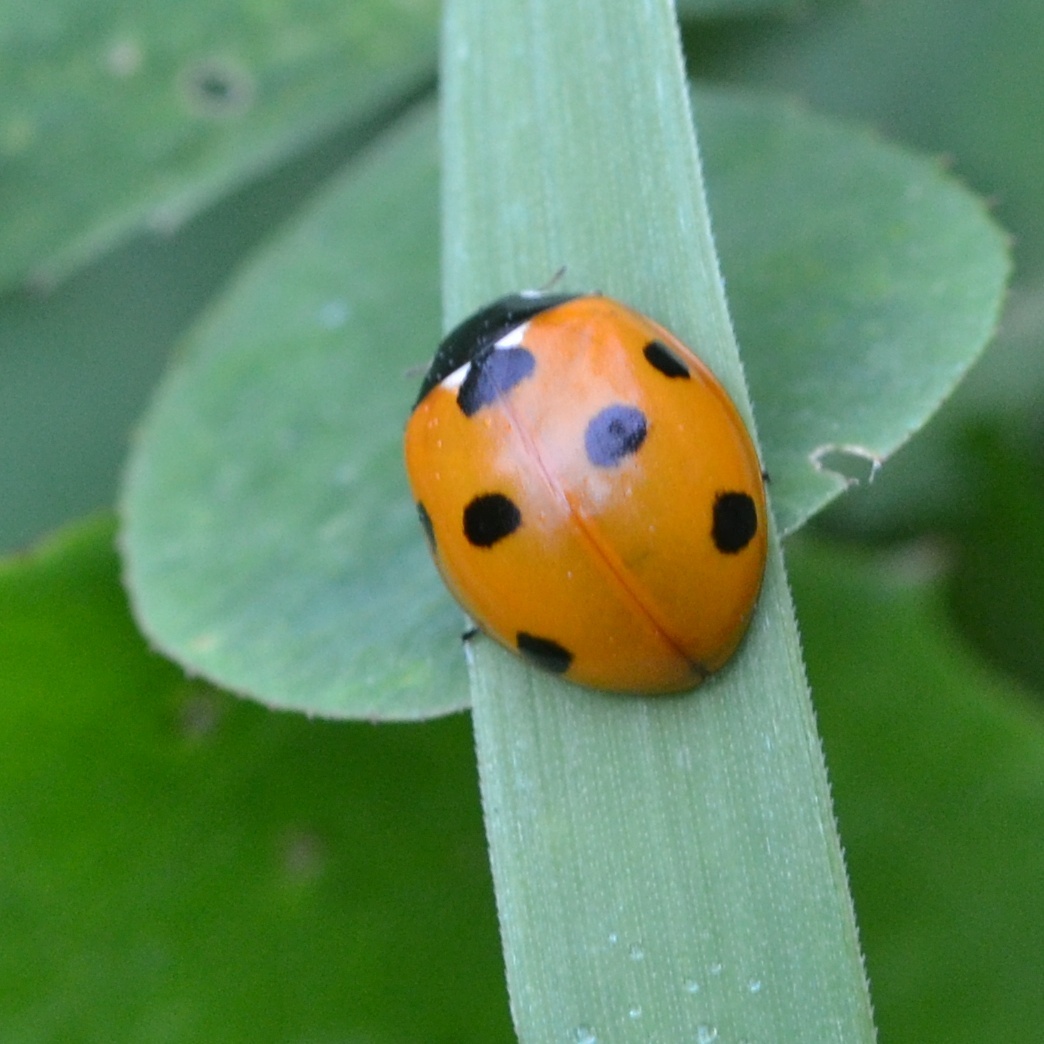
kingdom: Animalia
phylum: Arthropoda
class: Insecta
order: Coleoptera
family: Coccinellidae
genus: Coccinella
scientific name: Coccinella septempunctata
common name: Sevenspotted lady beetle
